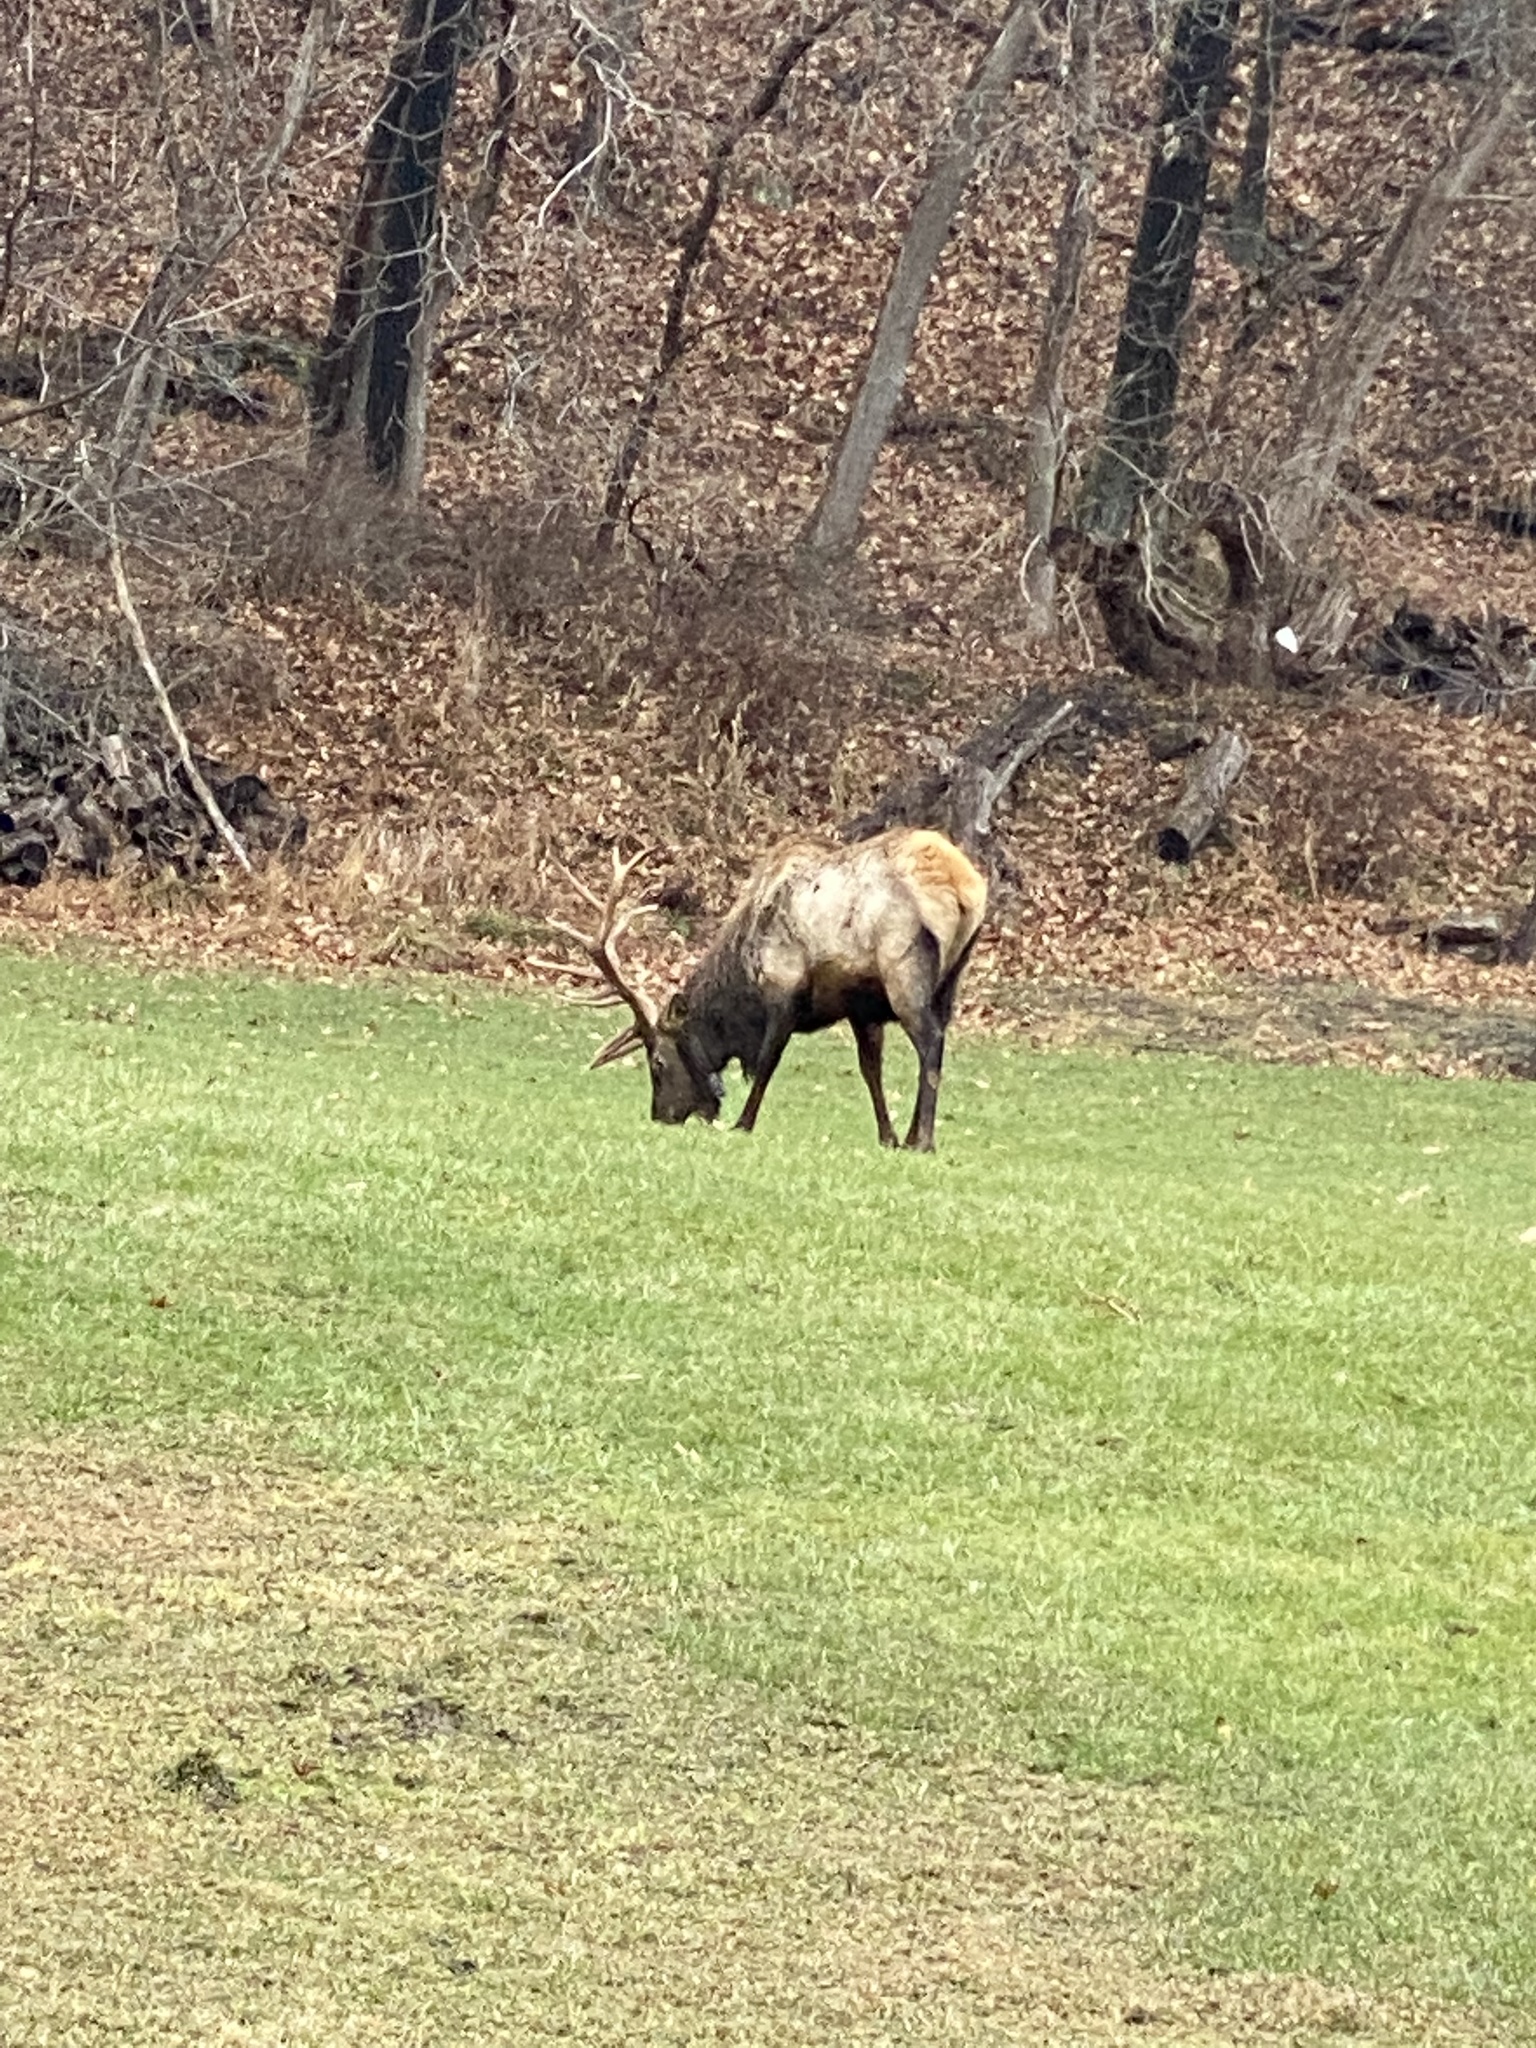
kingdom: Animalia
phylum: Chordata
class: Mammalia
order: Artiodactyla
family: Cervidae
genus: Cervus
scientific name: Cervus elaphus
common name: Red deer
